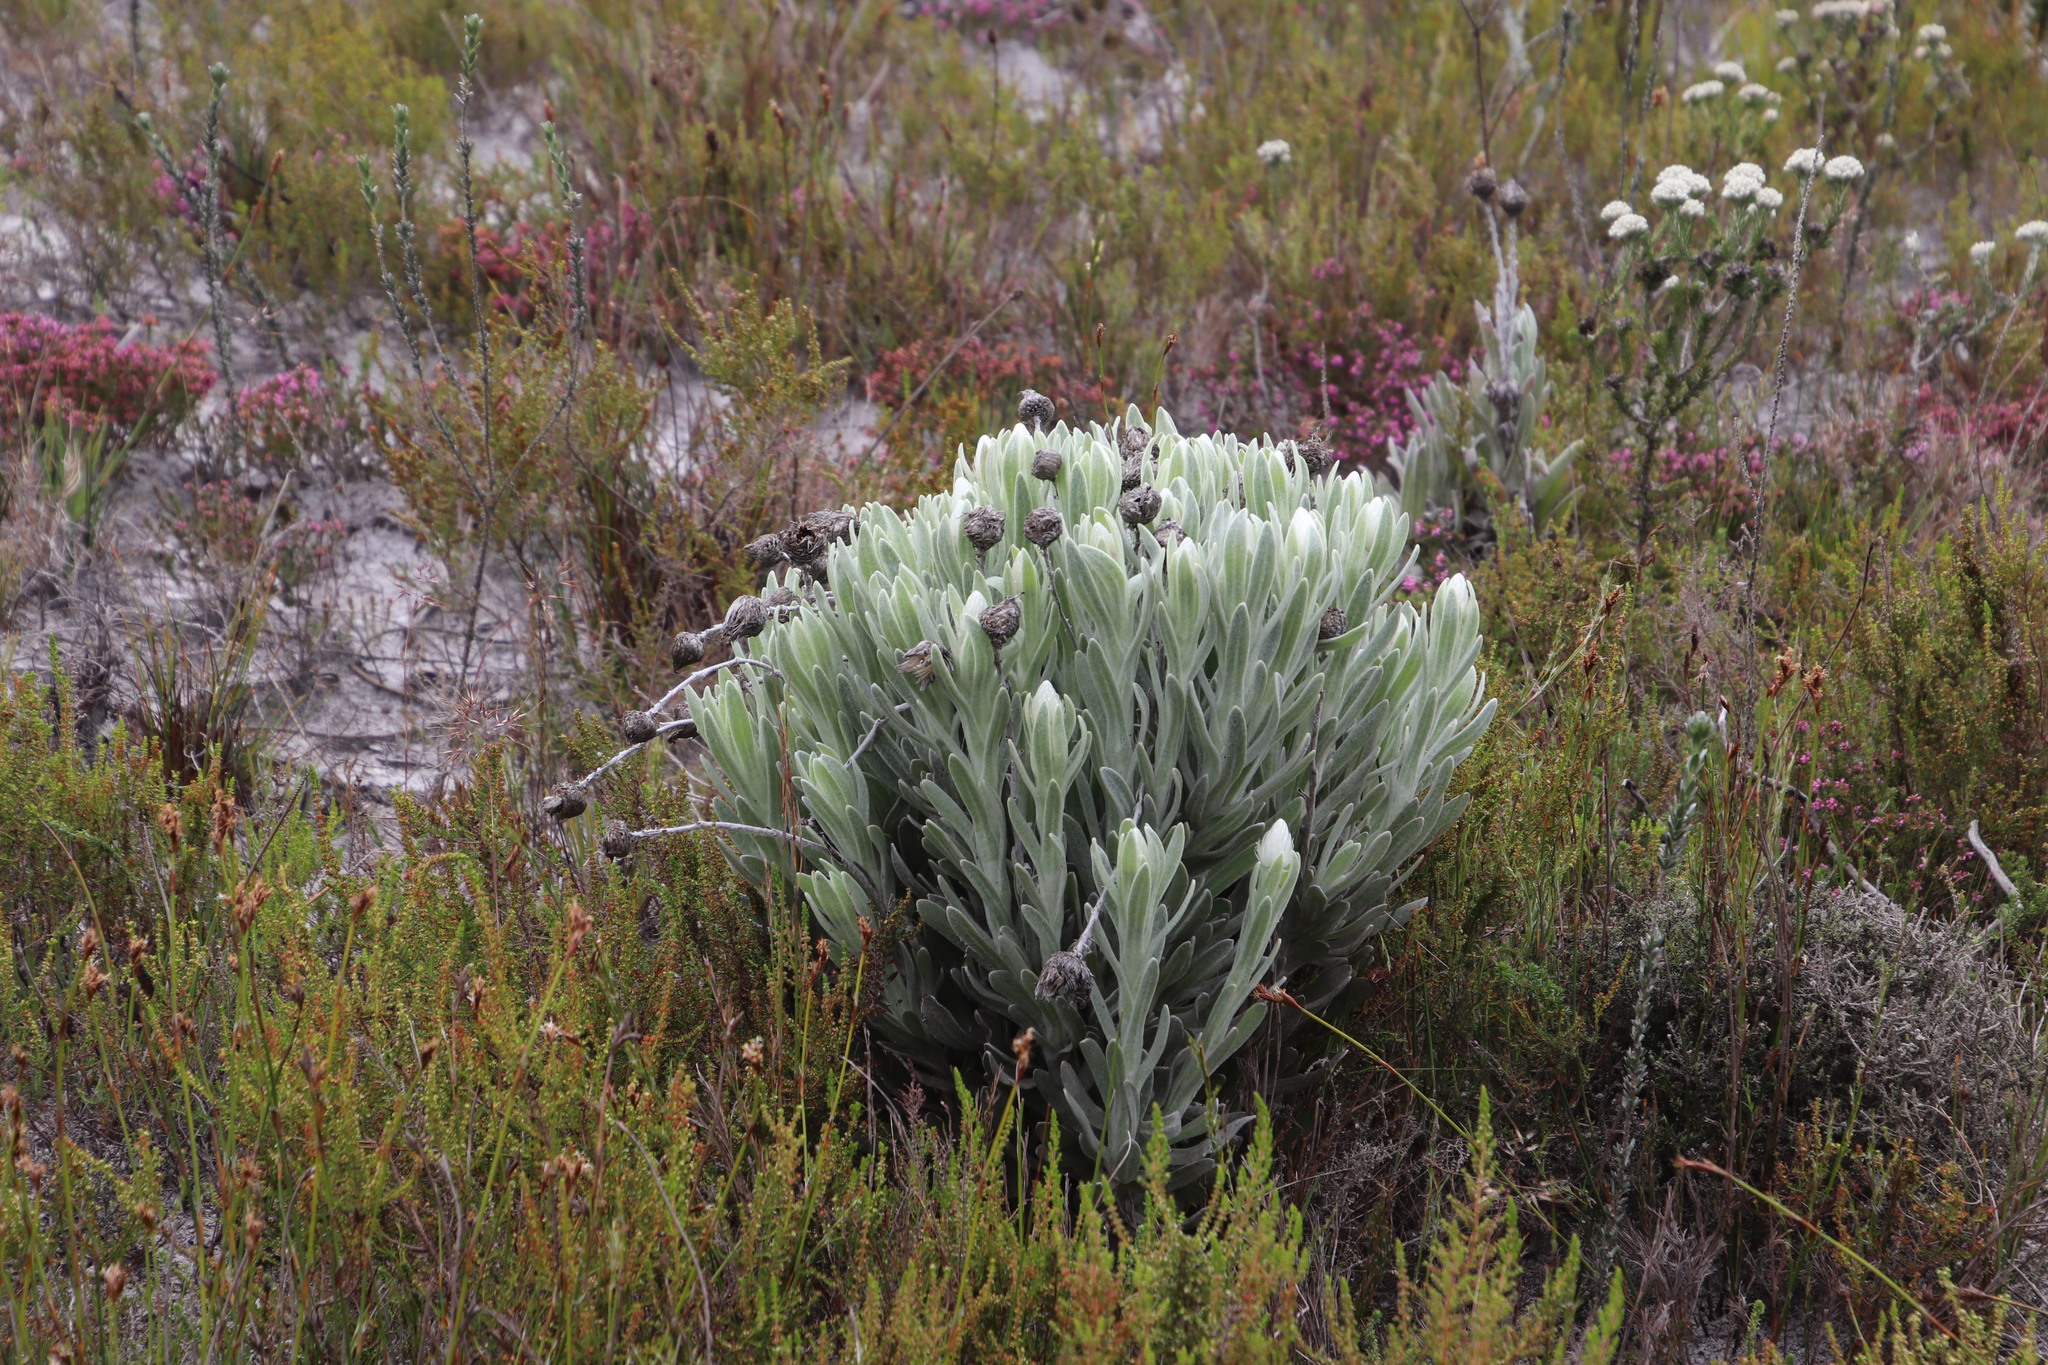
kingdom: Plantae
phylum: Tracheophyta
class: Magnoliopsida
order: Asterales
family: Asteraceae
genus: Syncarpha
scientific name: Syncarpha vestita
